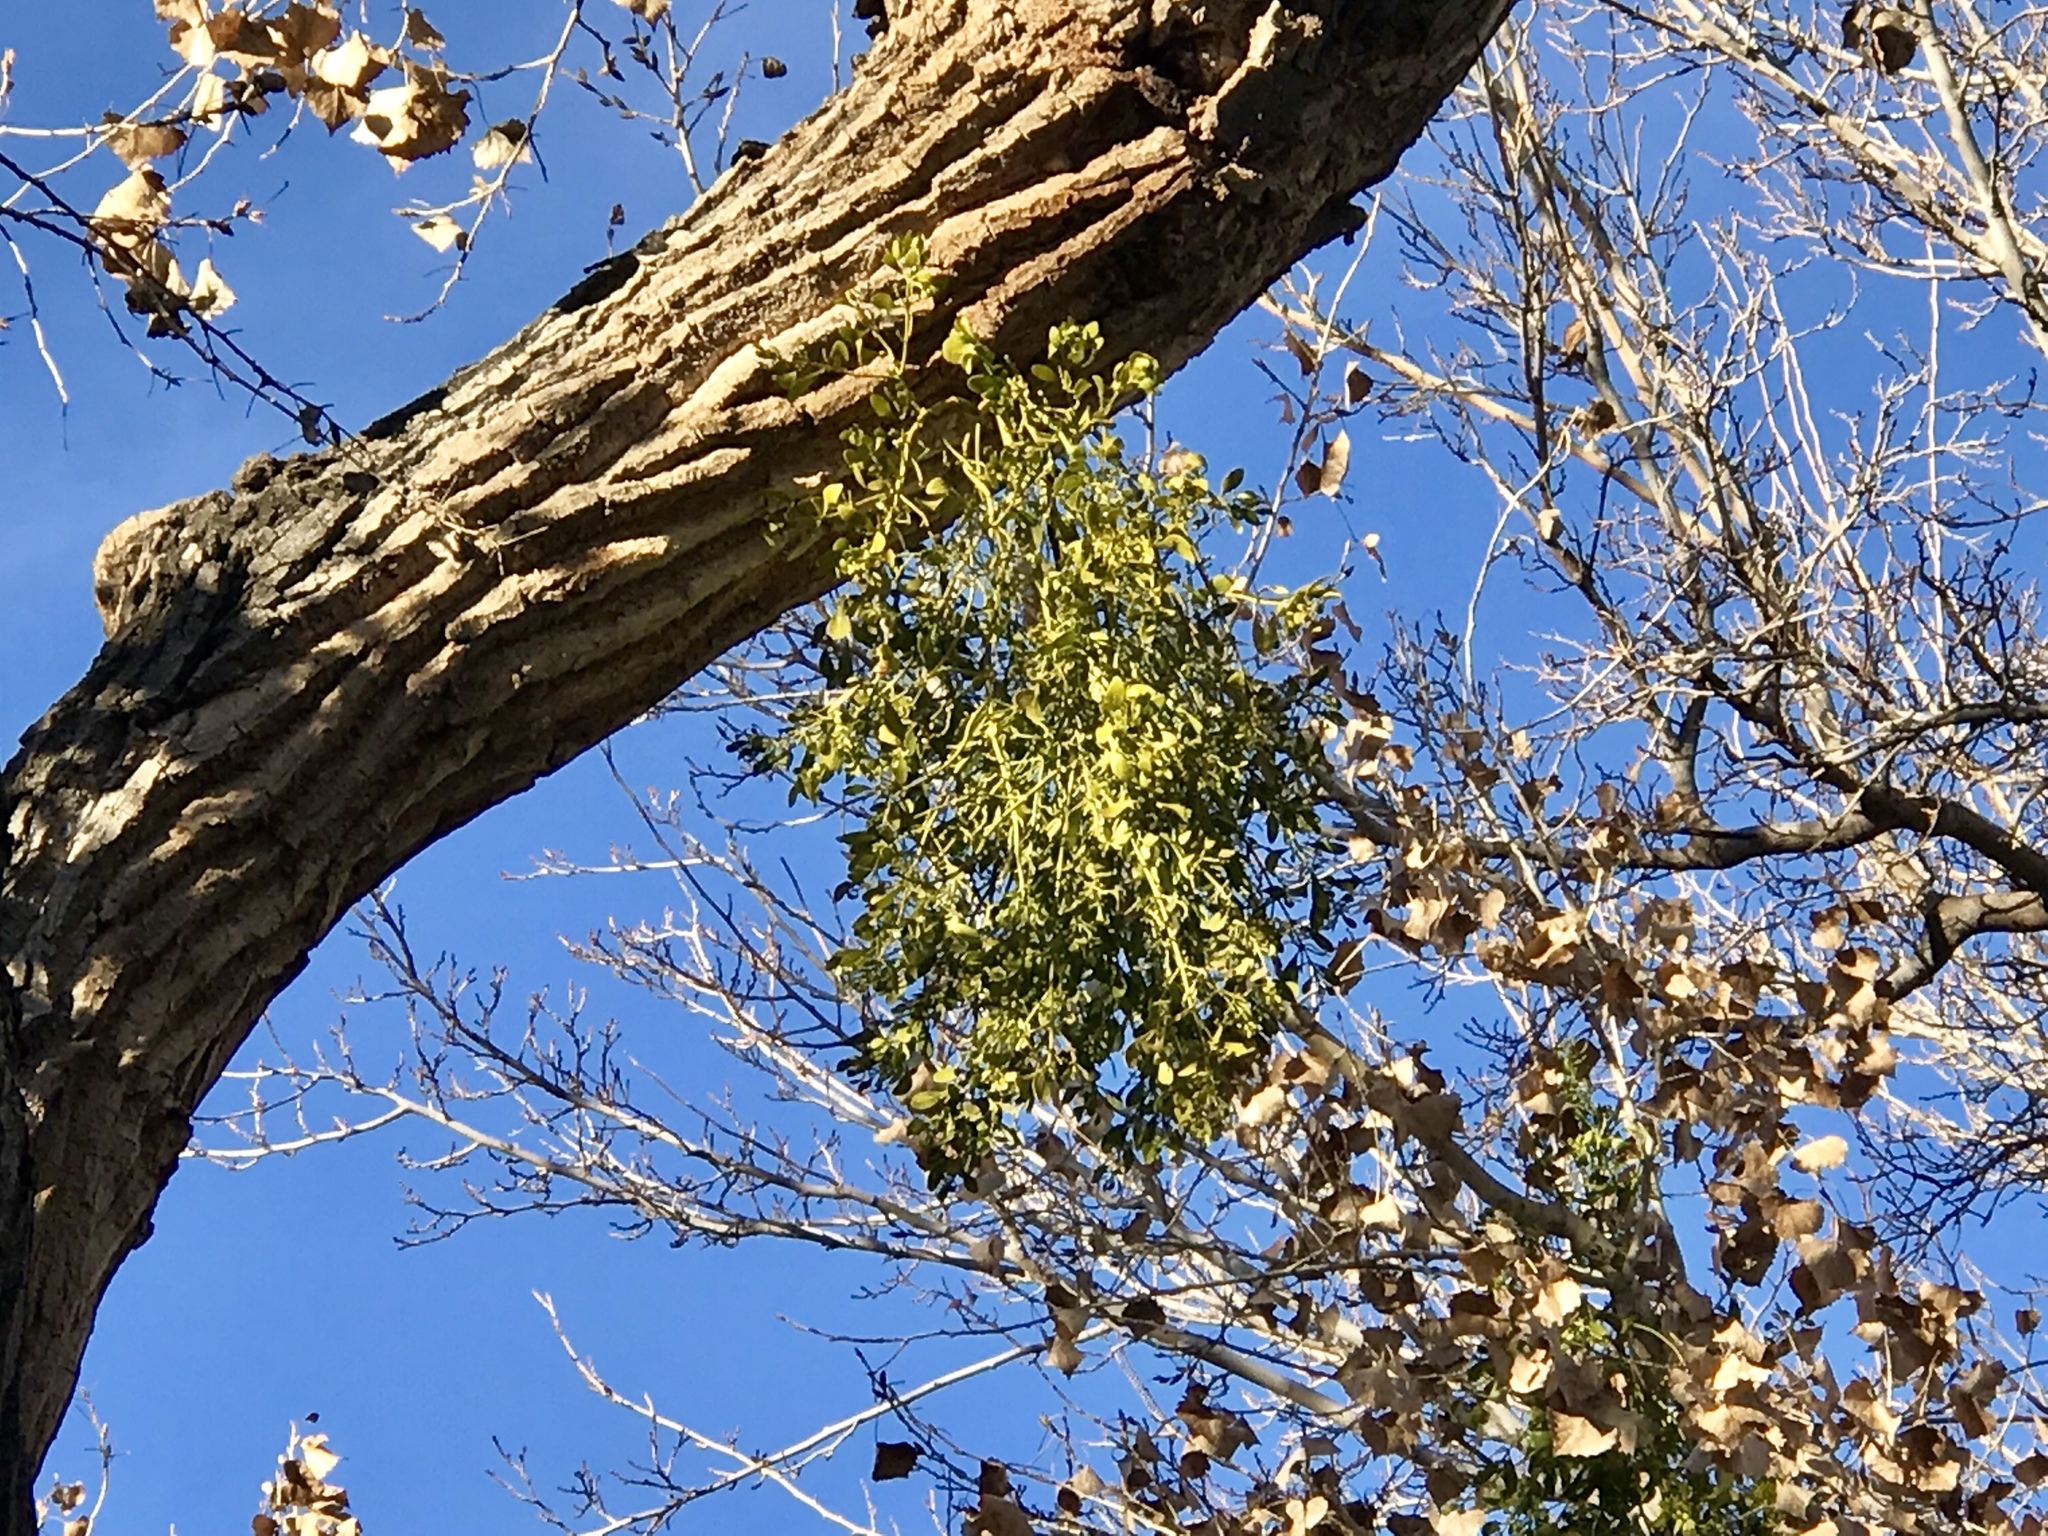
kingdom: Plantae
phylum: Tracheophyta
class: Magnoliopsida
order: Santalales
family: Viscaceae
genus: Phoradendron
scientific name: Phoradendron
